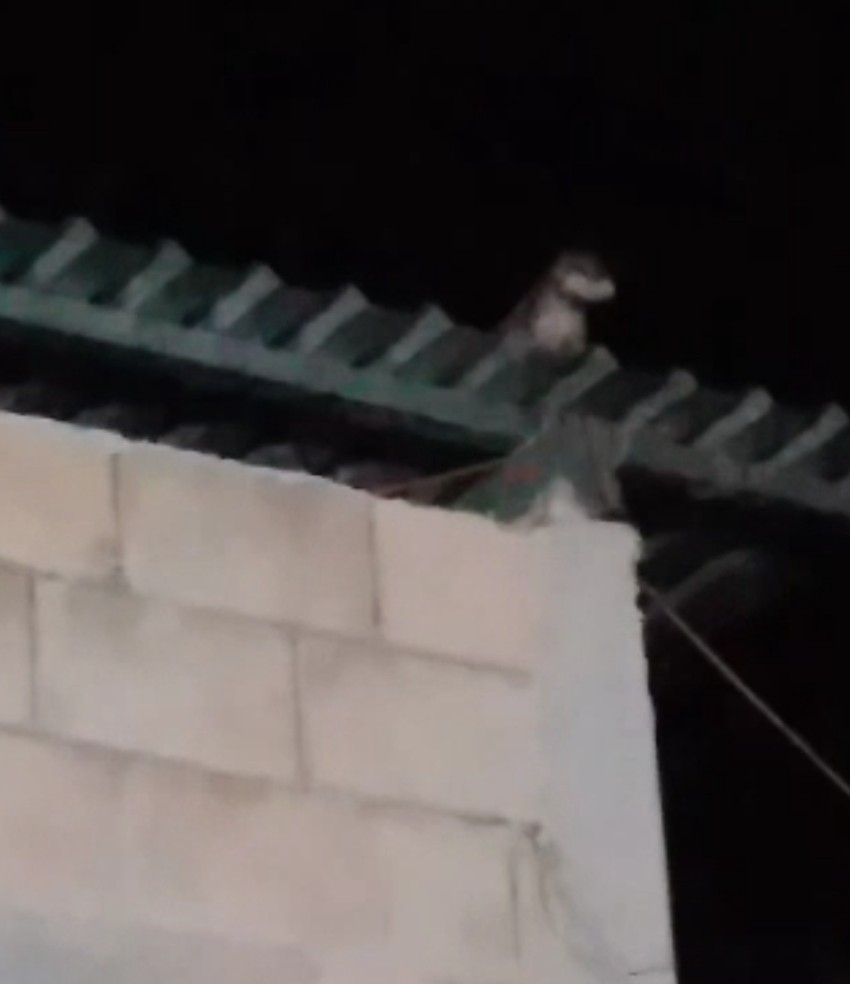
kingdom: Animalia
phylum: Chordata
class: Mammalia
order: Didelphimorphia
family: Didelphidae
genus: Didelphis
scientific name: Didelphis
